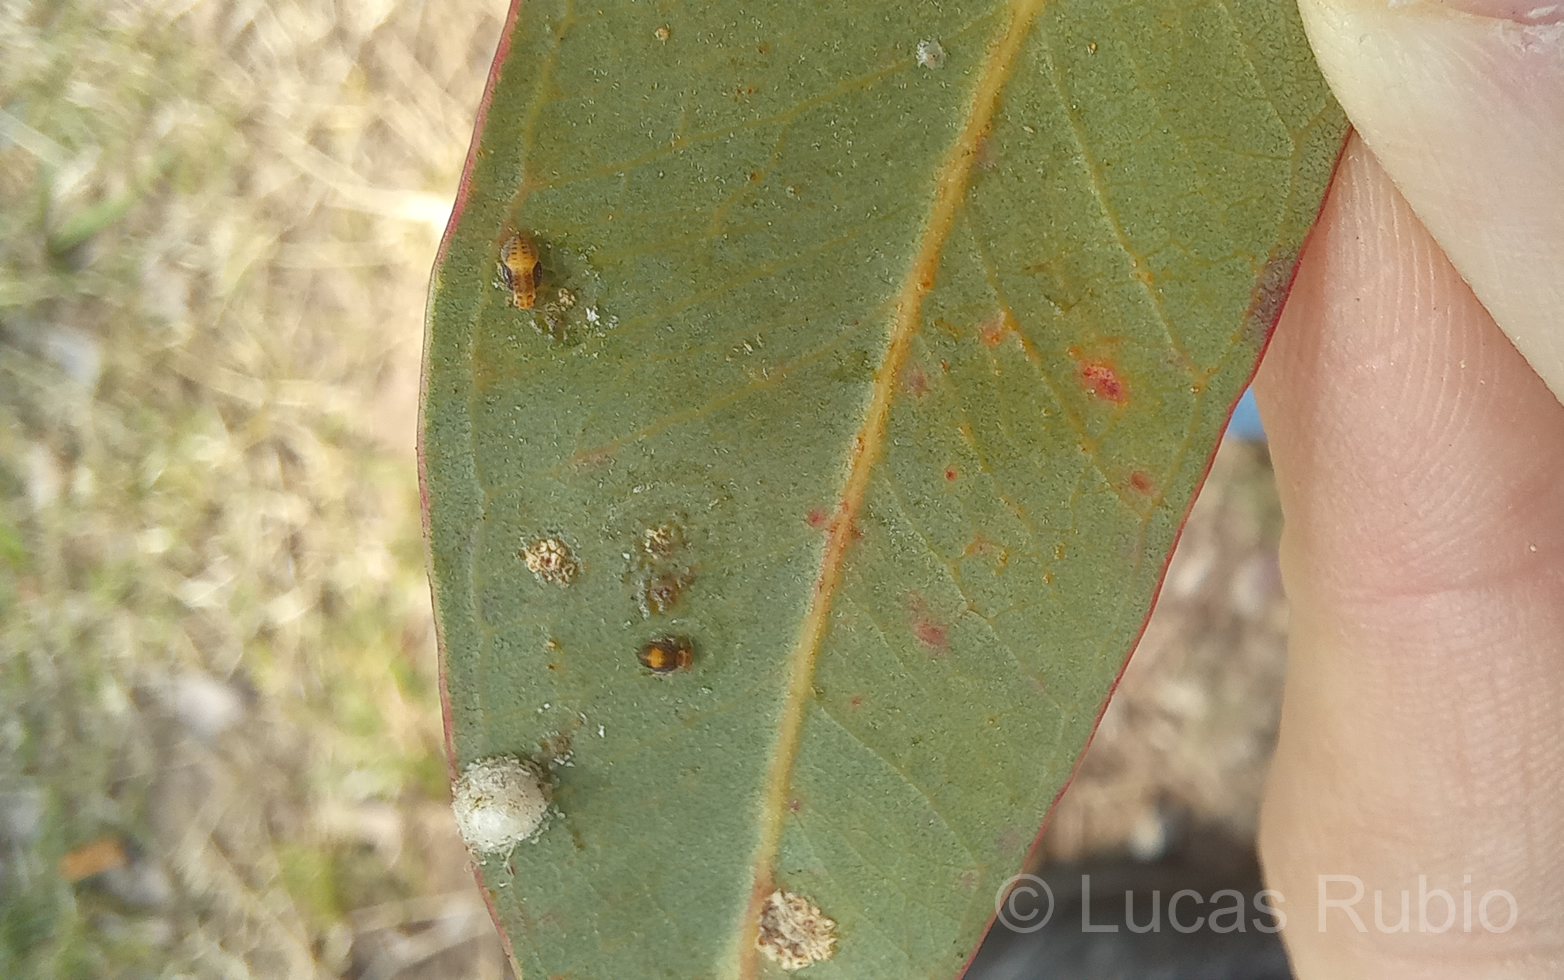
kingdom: Animalia
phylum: Arthropoda
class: Insecta
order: Hemiptera
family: Aphalaridae
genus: Glycaspis
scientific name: Glycaspis brimblecombei
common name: Red gum lerp psyllid
